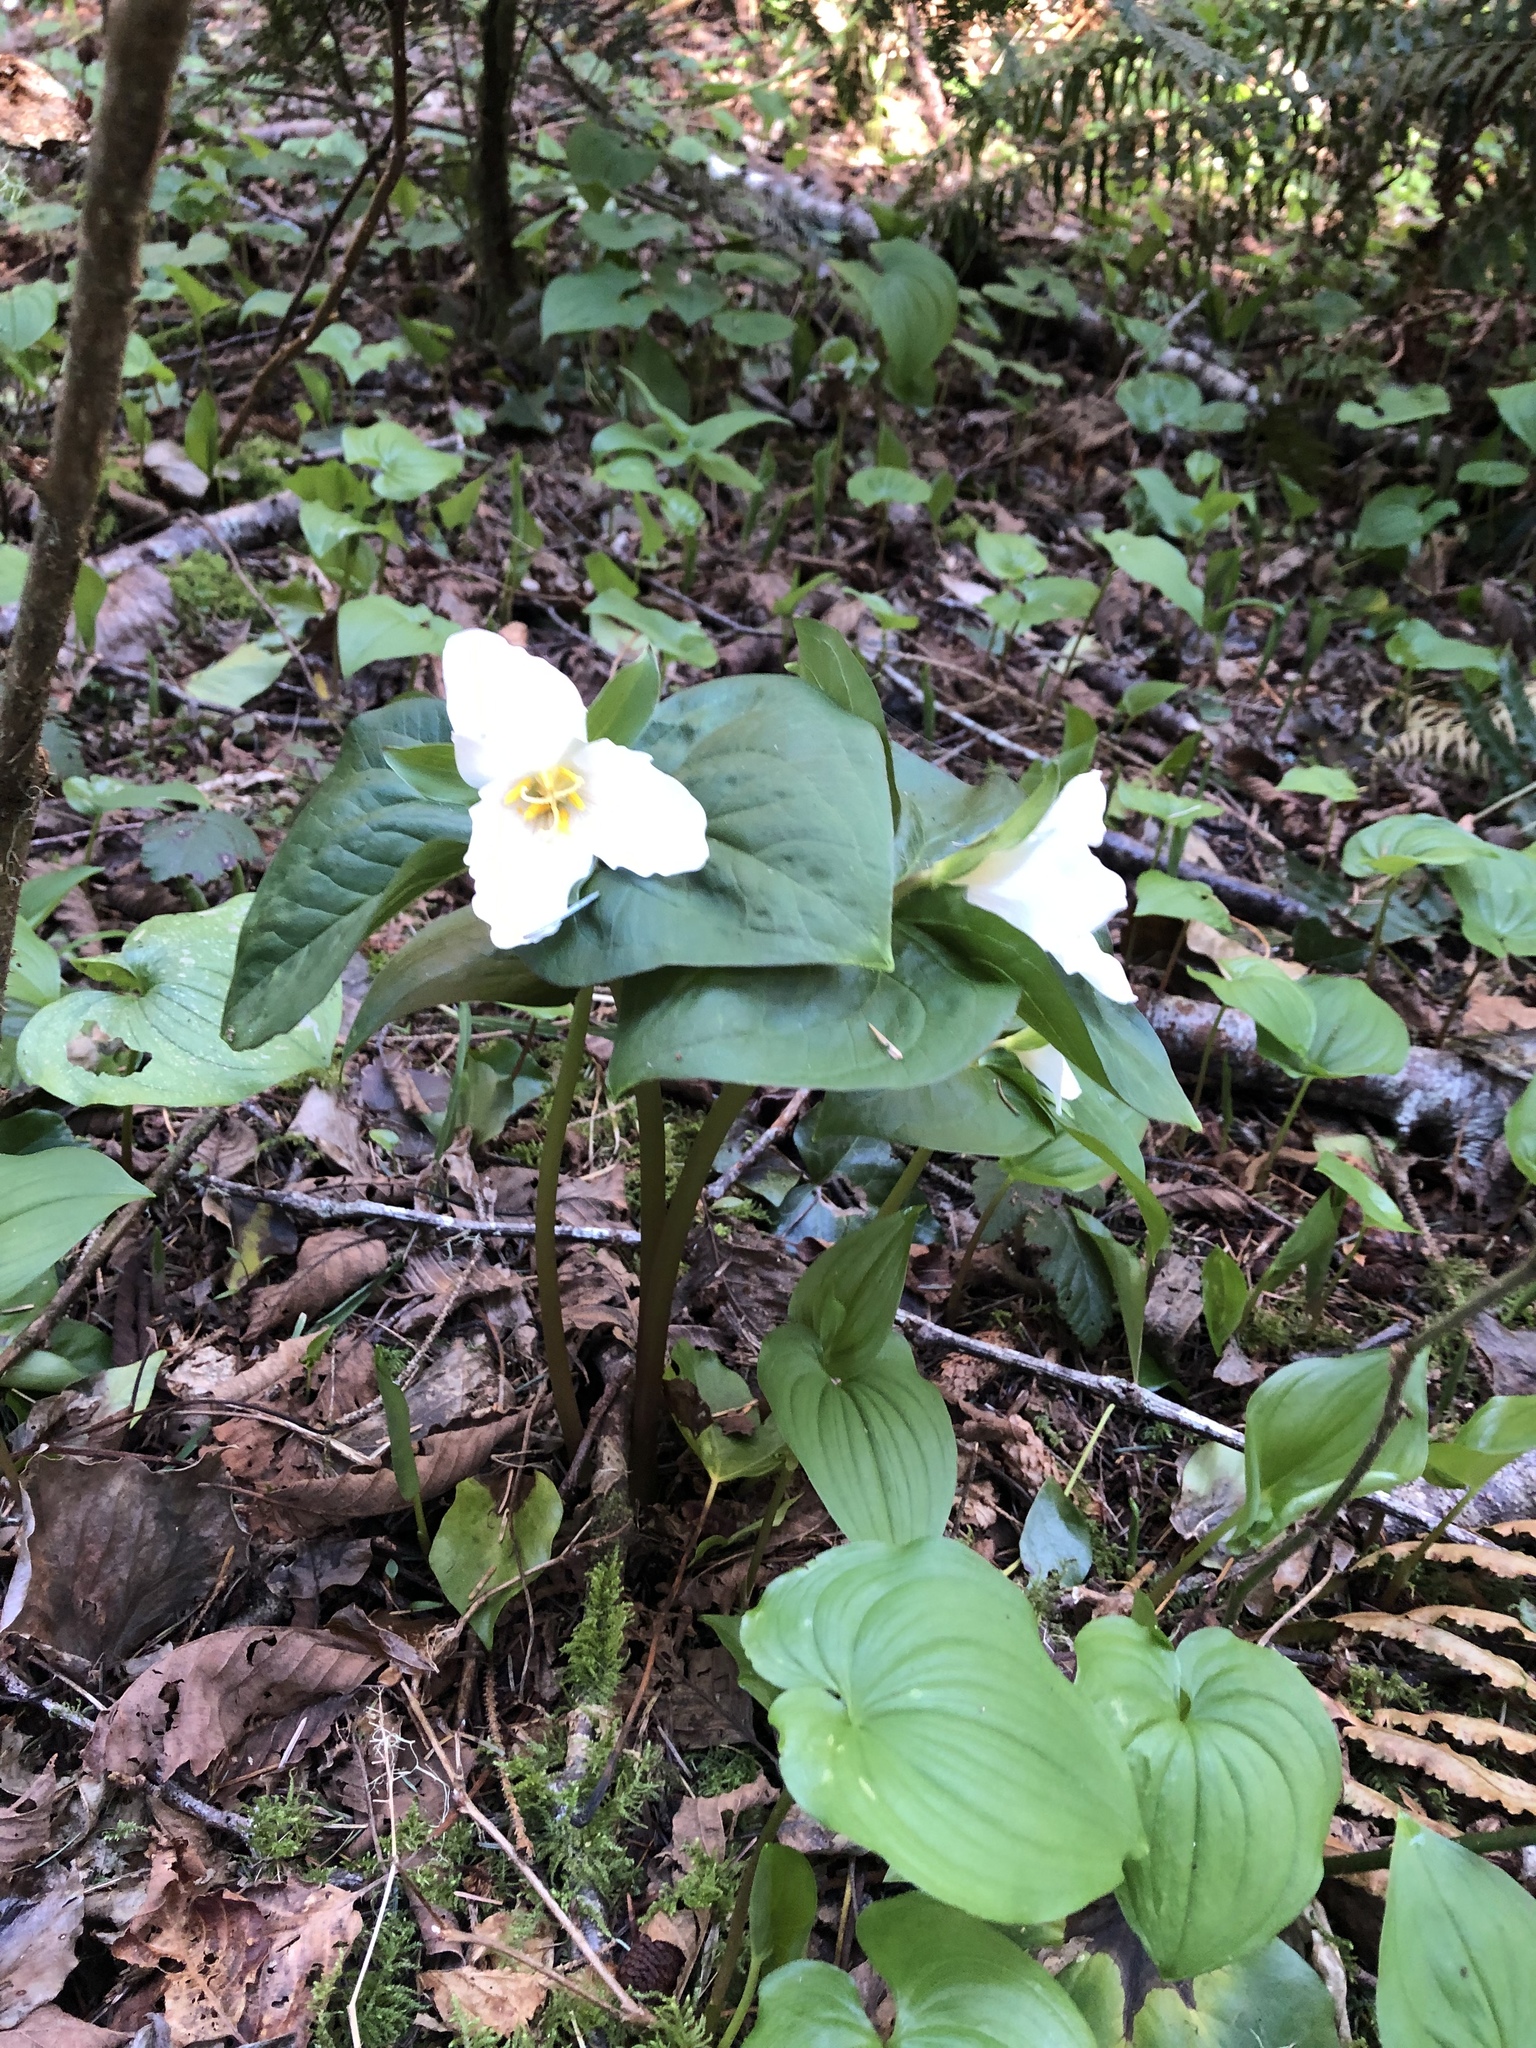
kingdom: Plantae
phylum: Tracheophyta
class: Liliopsida
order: Liliales
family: Melanthiaceae
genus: Trillium
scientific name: Trillium ovatum
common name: Pacific trillium
